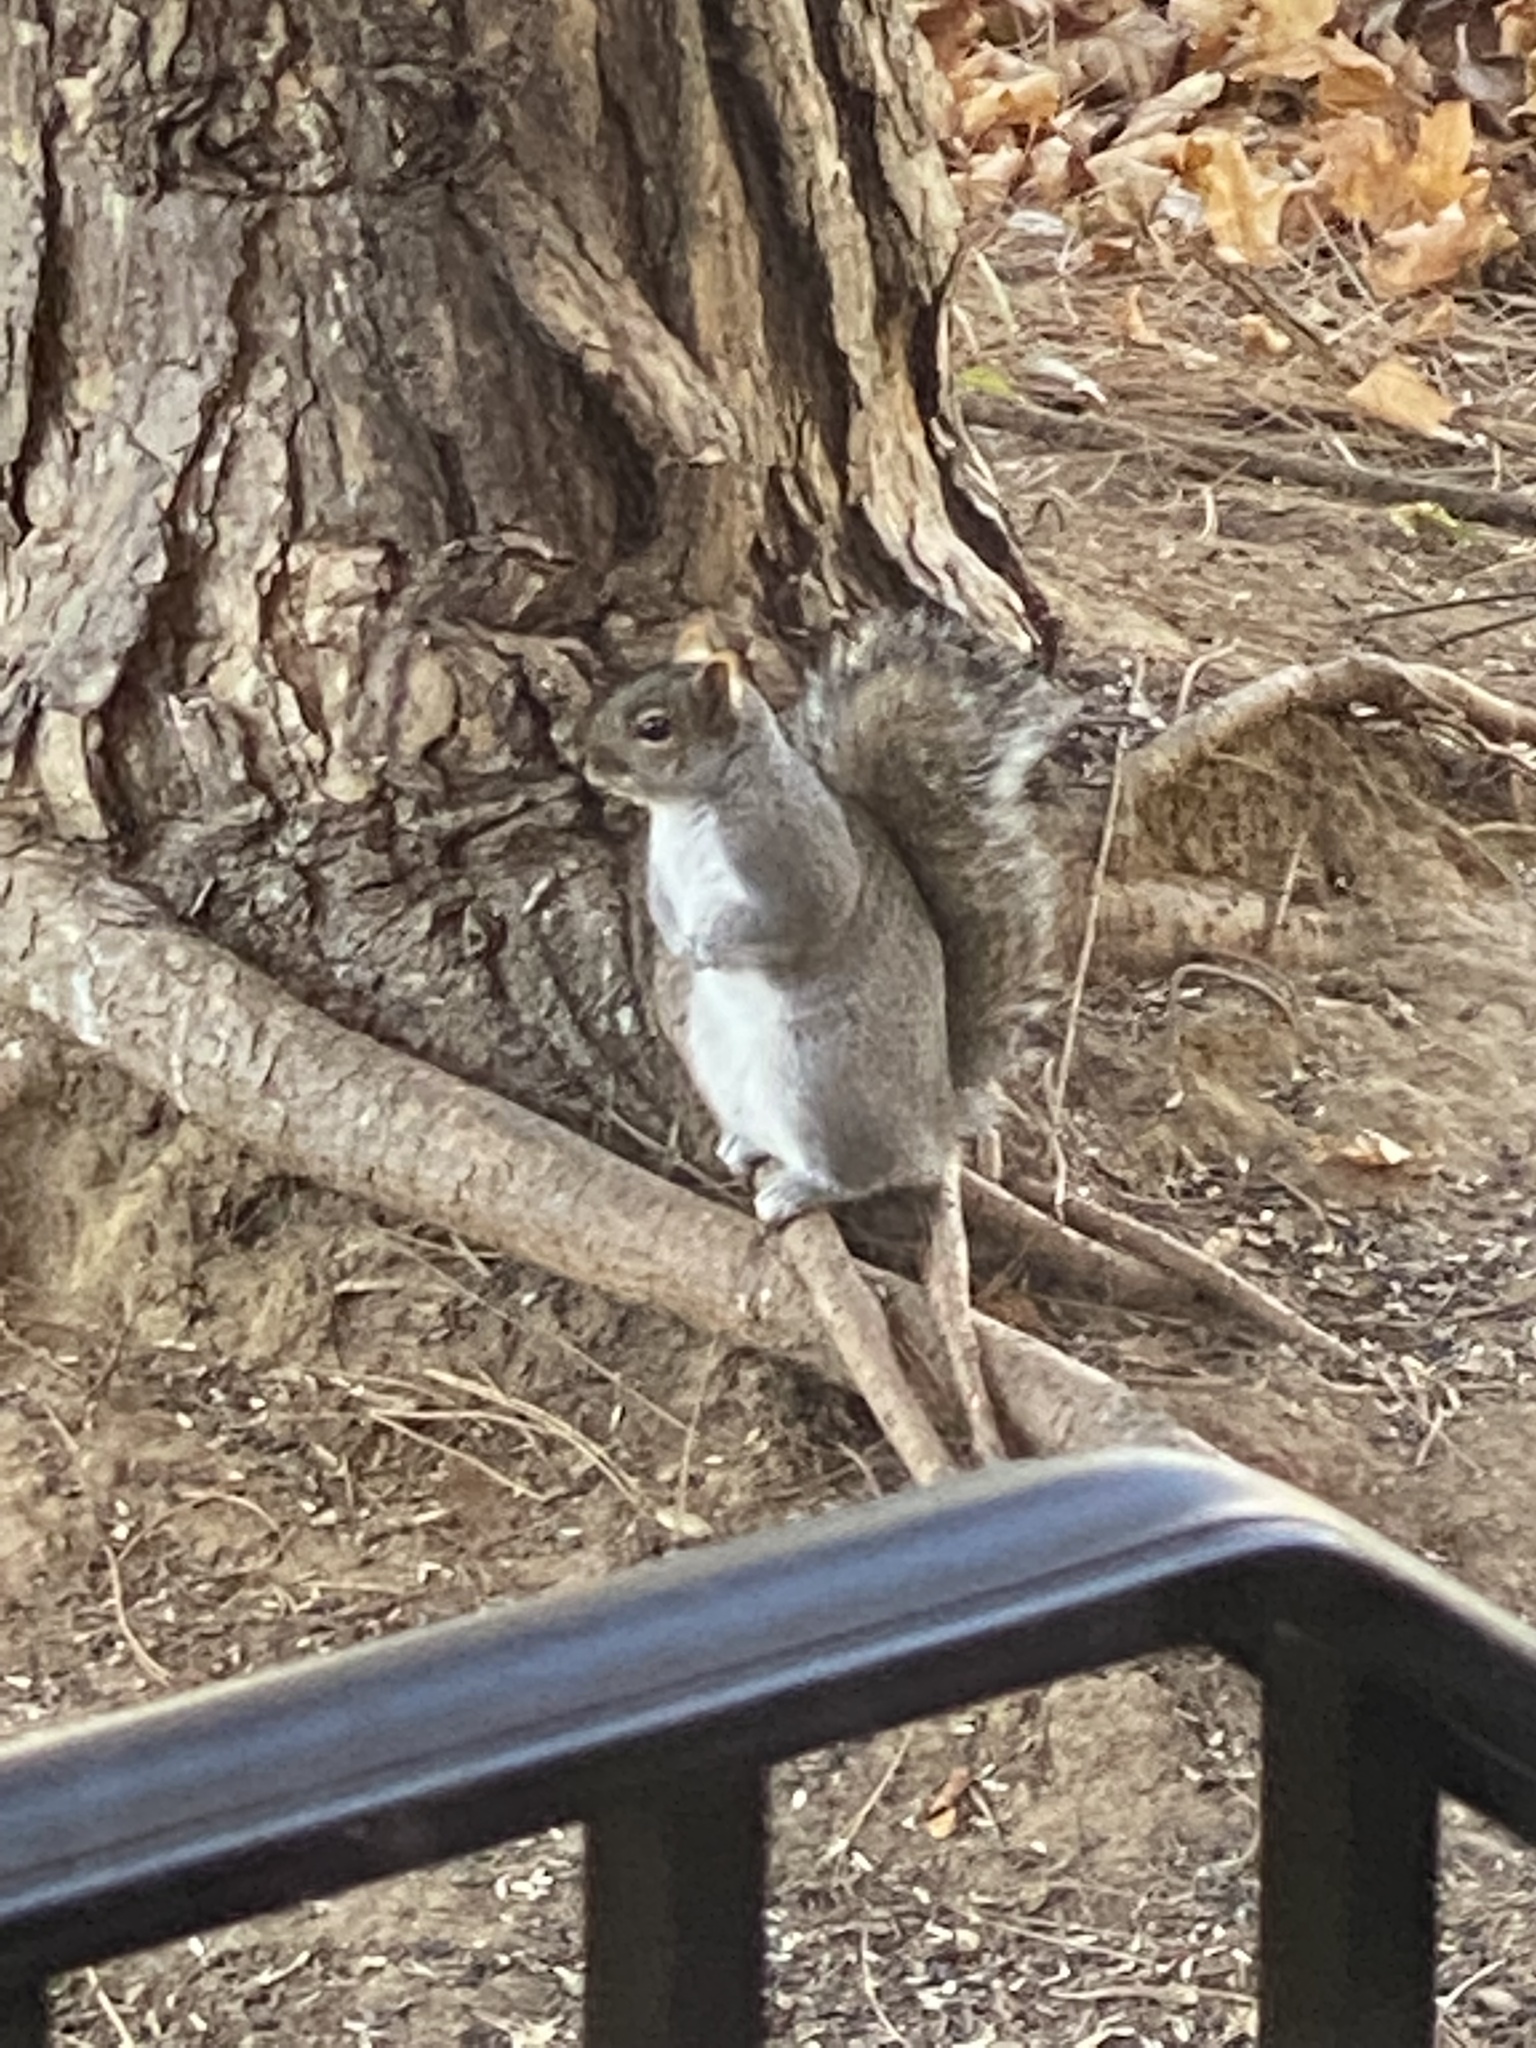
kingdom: Animalia
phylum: Chordata
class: Mammalia
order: Rodentia
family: Sciuridae
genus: Sciurus
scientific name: Sciurus carolinensis
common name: Eastern gray squirrel
